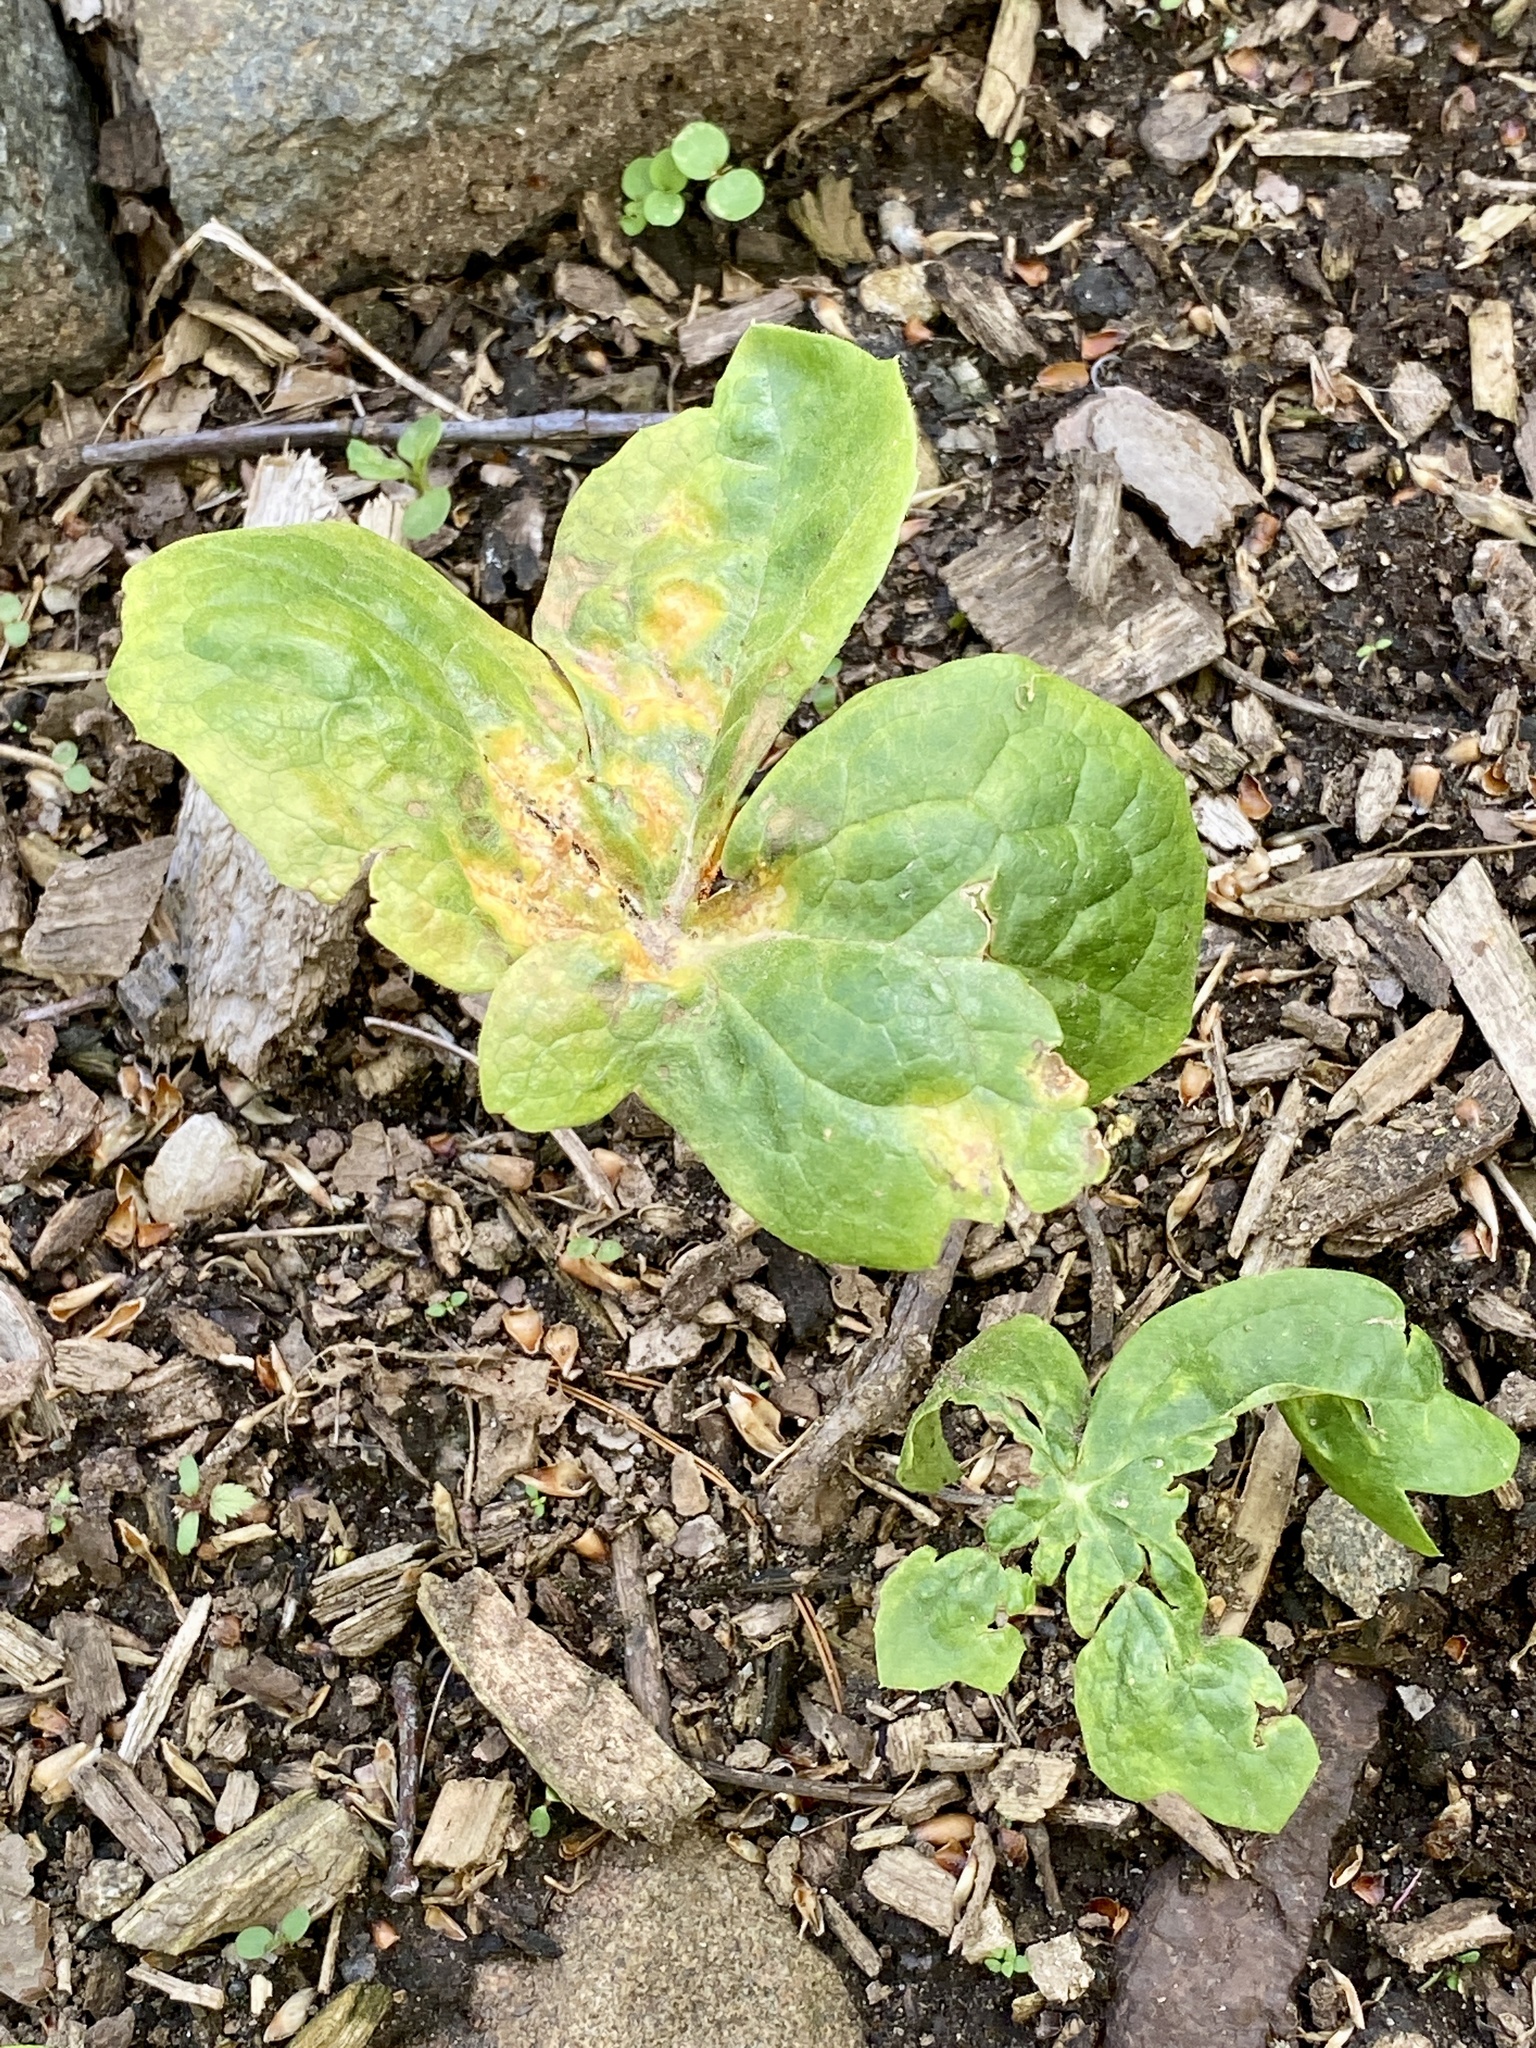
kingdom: Fungi
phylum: Basidiomycota
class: Pucciniomycetes
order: Pucciniales
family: Pucciniaceae
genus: Puccinia
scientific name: Puccinia podophylli
